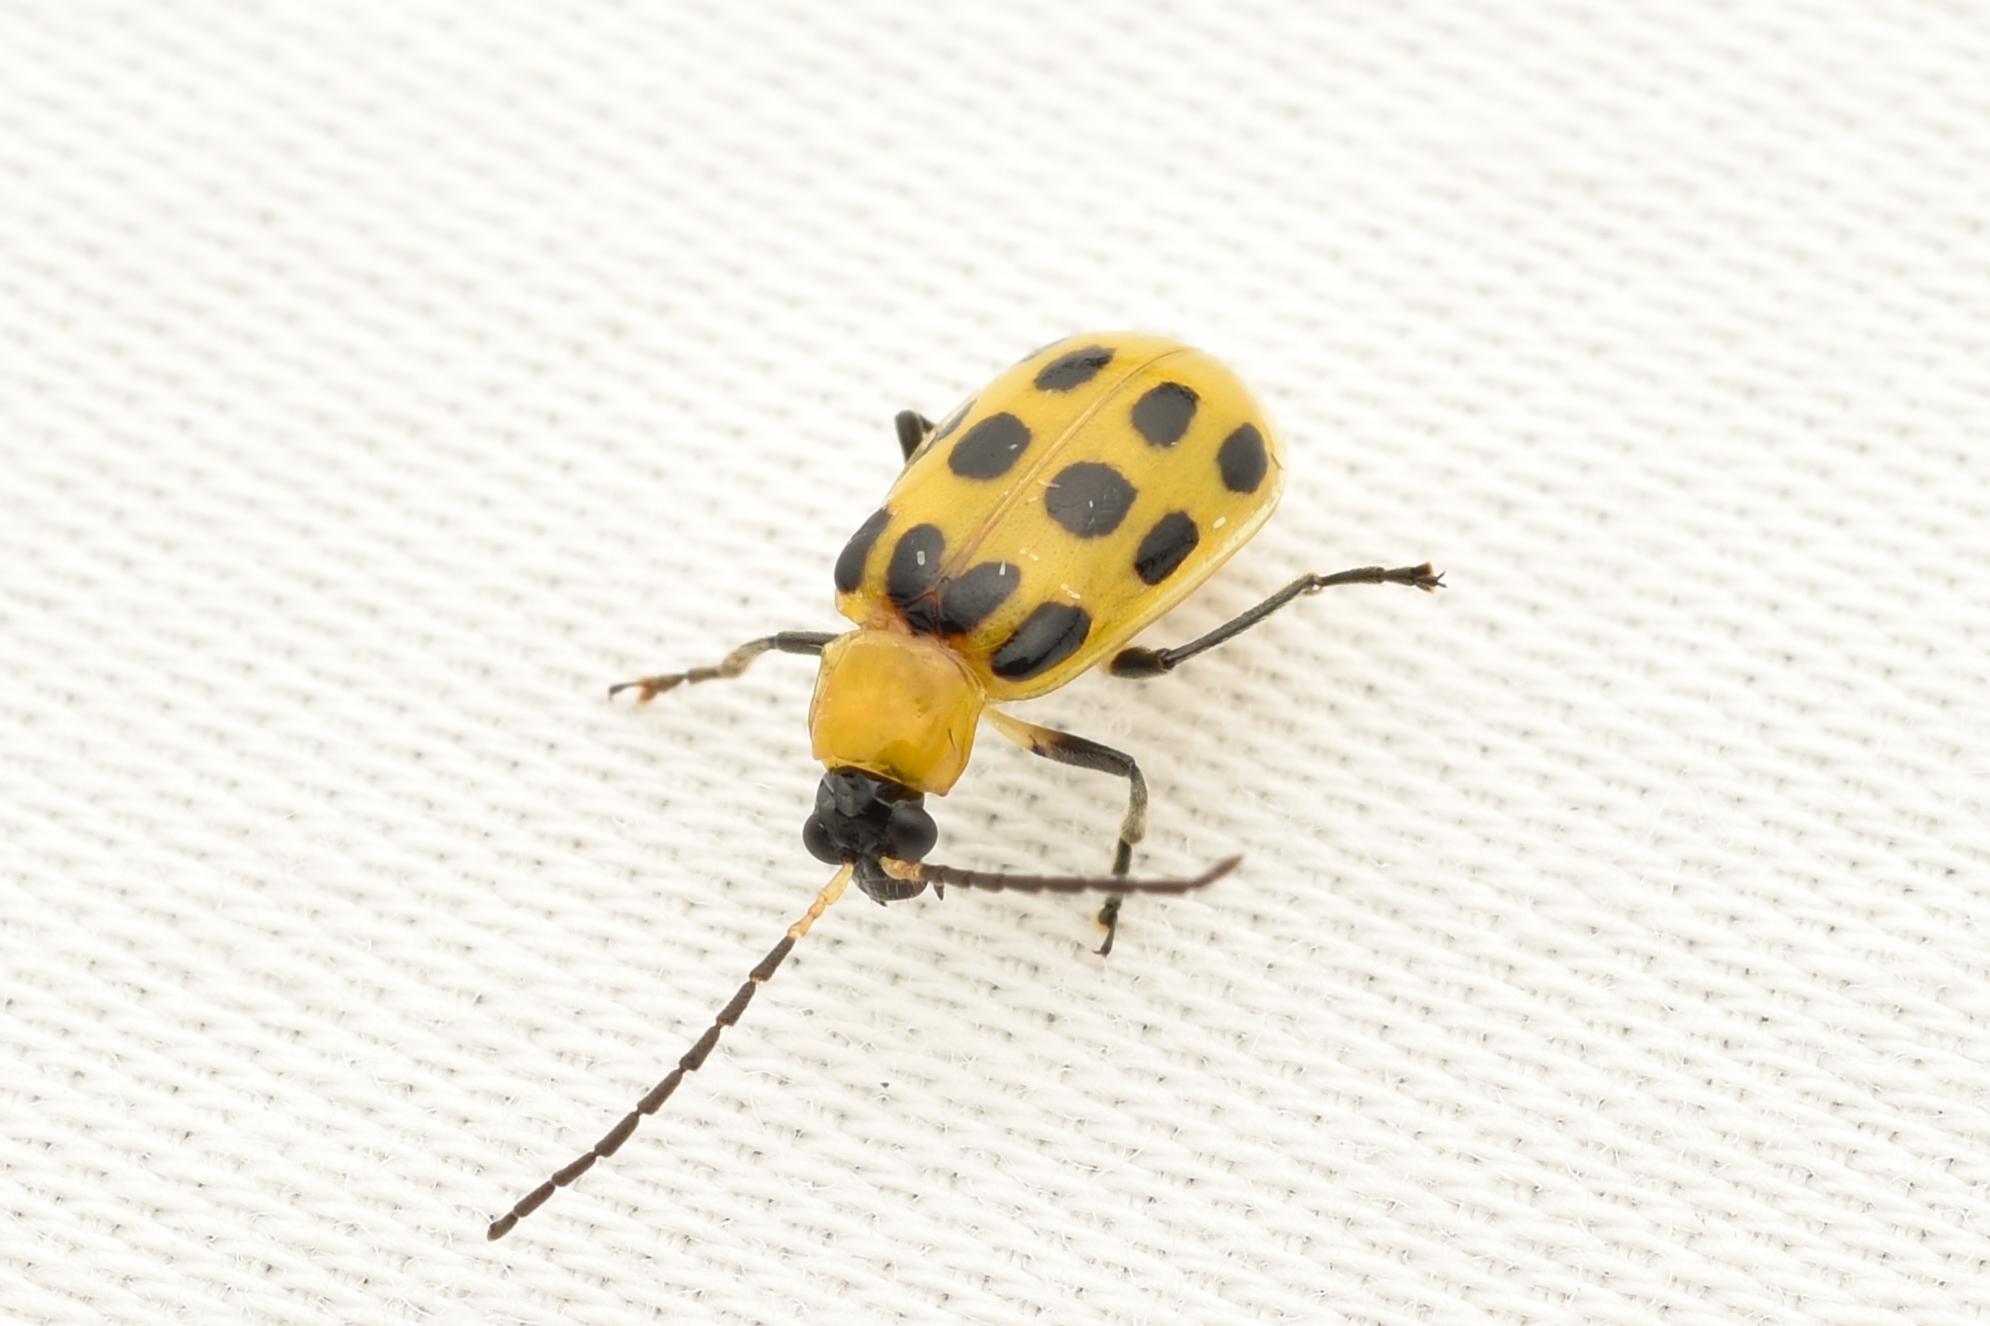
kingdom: Animalia
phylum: Arthropoda
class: Insecta
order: Coleoptera
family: Chrysomelidae
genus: Diabrotica
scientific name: Diabrotica undecimpunctata
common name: Spotted cucumber beetle
